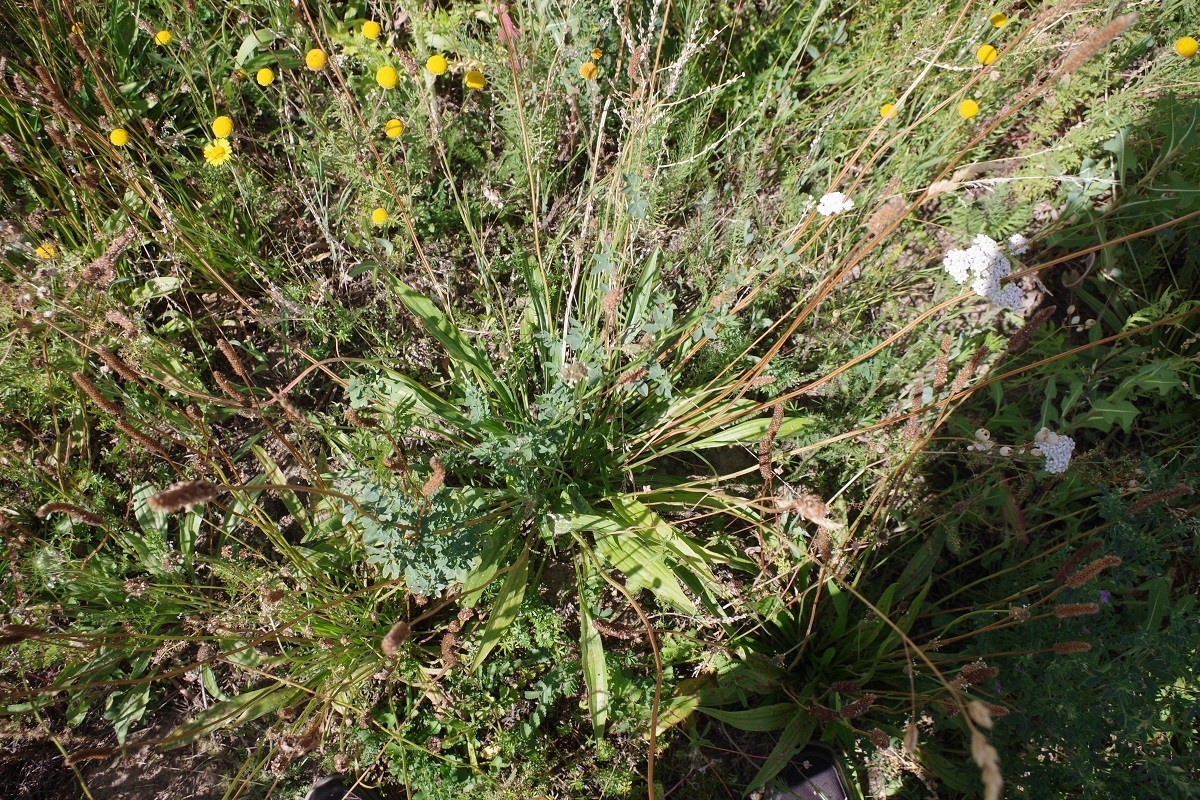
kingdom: Plantae
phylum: Tracheophyta
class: Magnoliopsida
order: Lamiales
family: Plantaginaceae
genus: Plantago
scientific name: Plantago lanceolata
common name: Ribwort plantain
